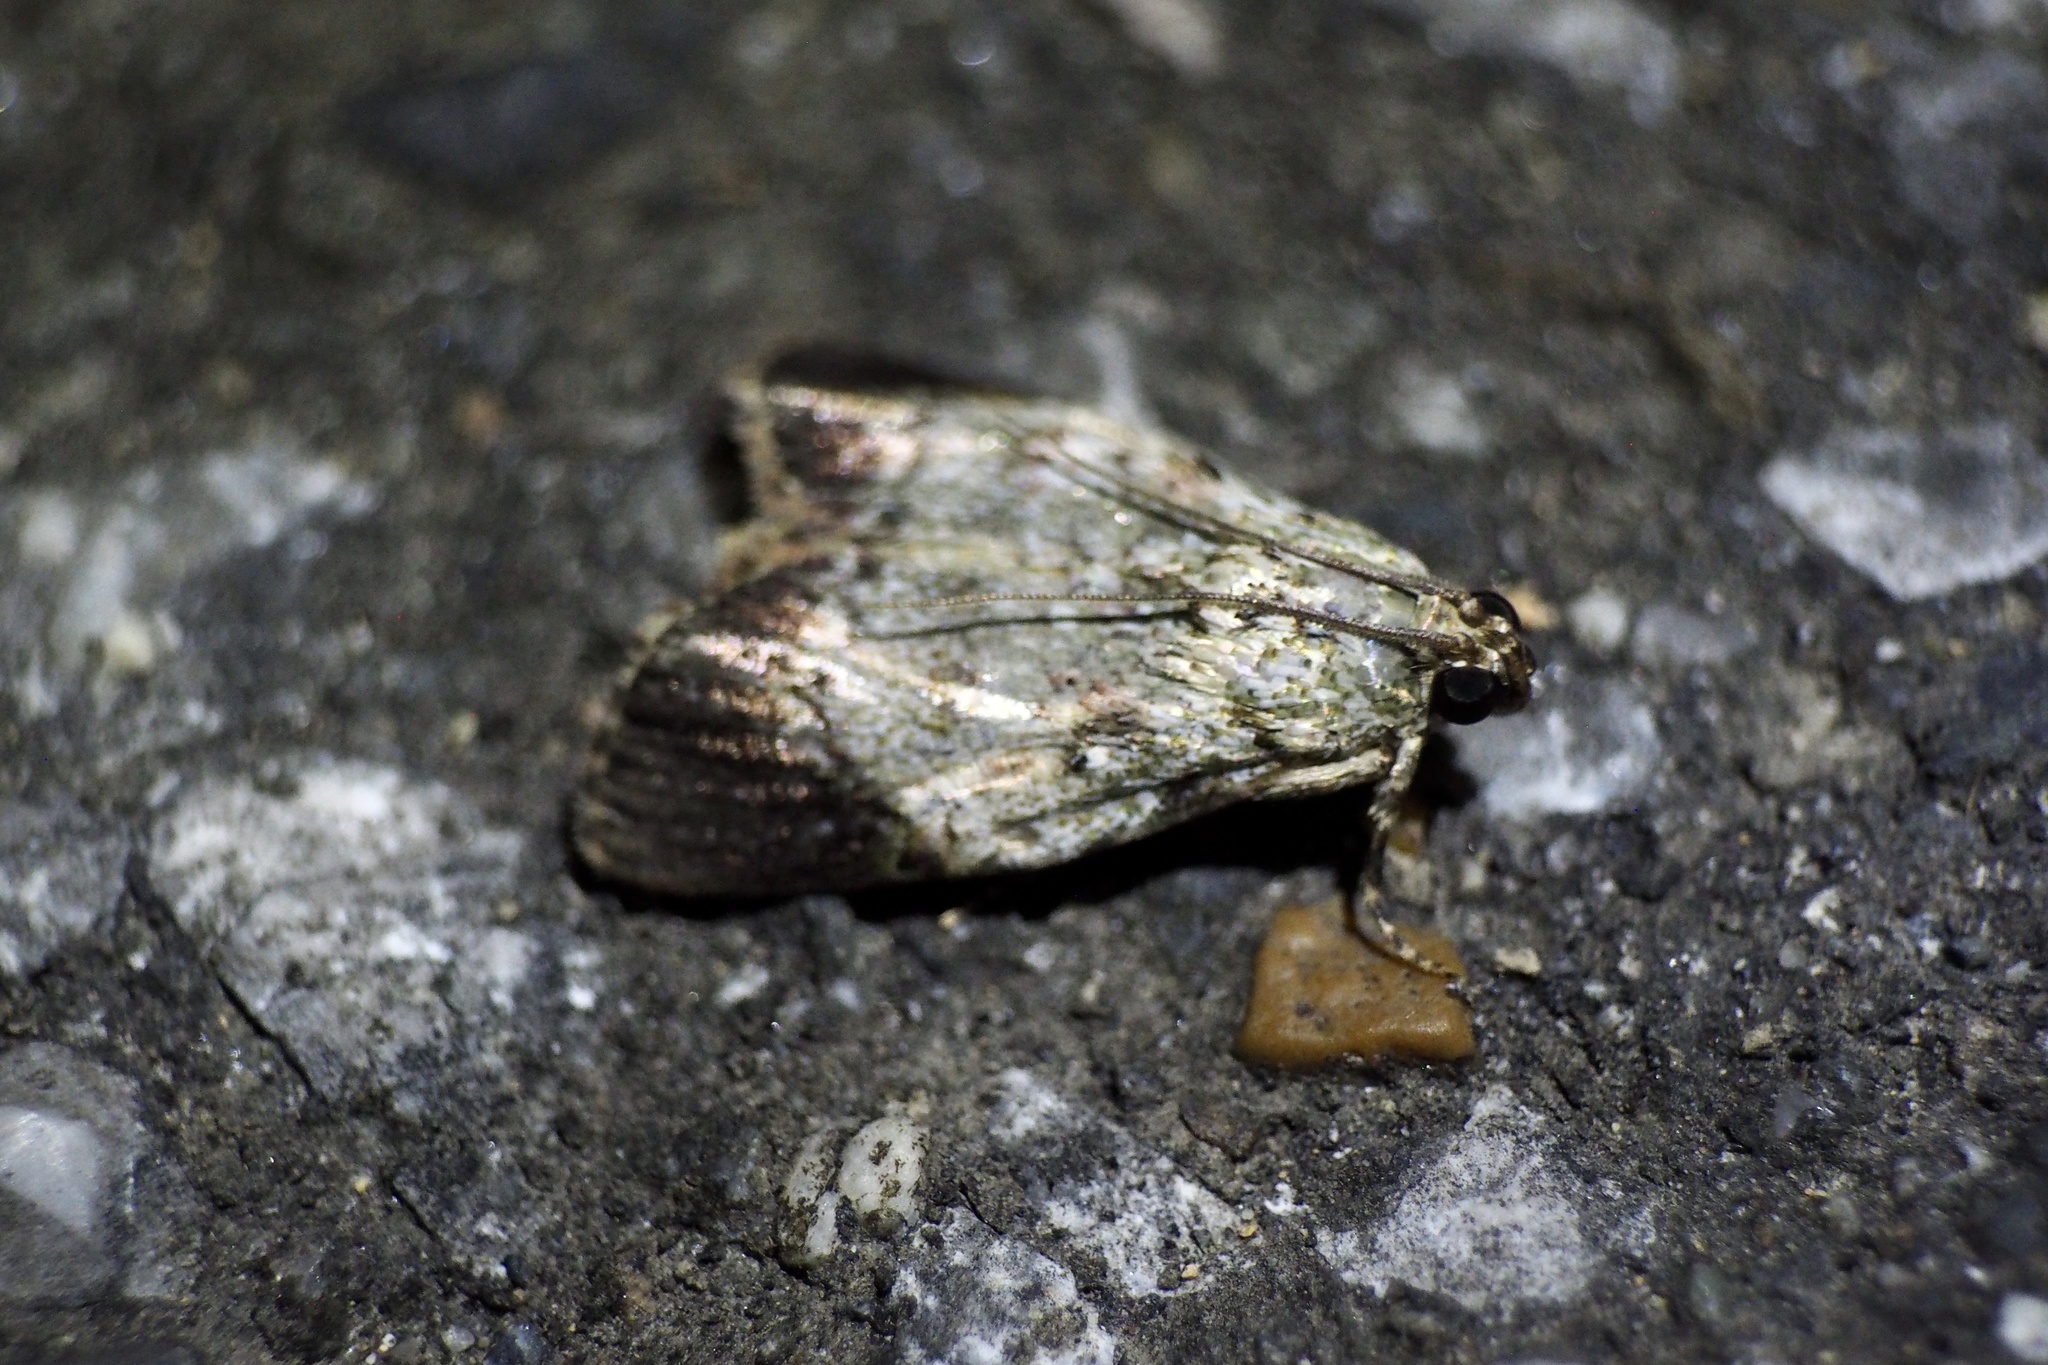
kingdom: Animalia
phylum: Arthropoda
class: Insecta
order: Lepidoptera
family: Pyralidae
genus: Orthaga
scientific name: Orthaga euadrusalis
